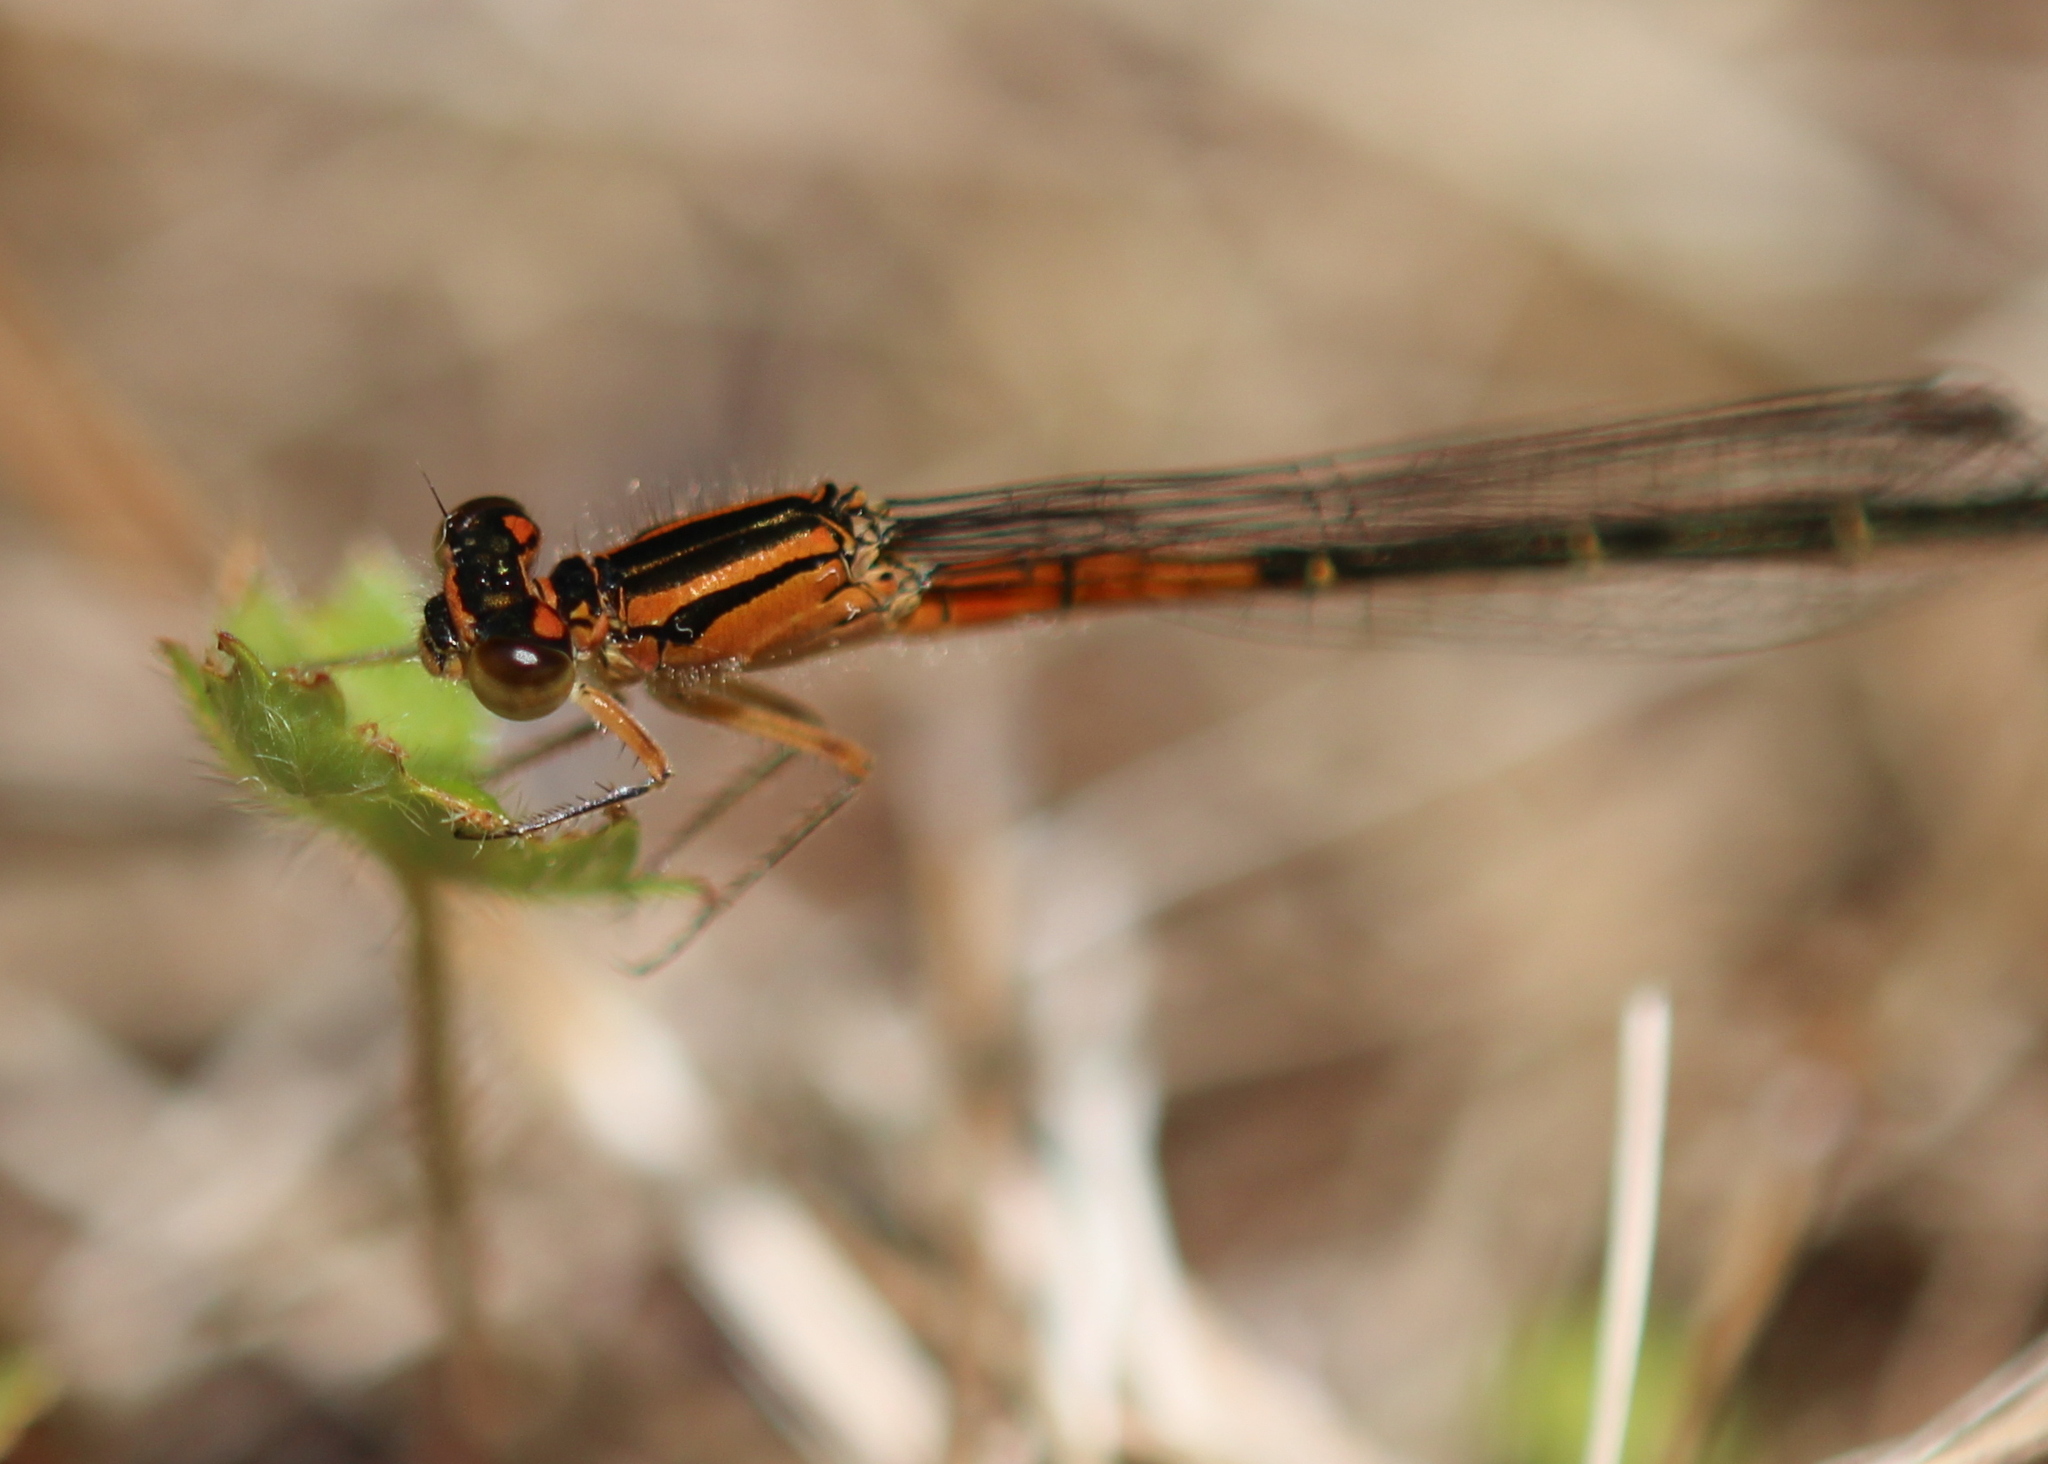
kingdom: Animalia
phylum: Arthropoda
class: Insecta
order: Odonata
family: Coenagrionidae
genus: Ischnura
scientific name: Ischnura verticalis
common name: Eastern forktail
